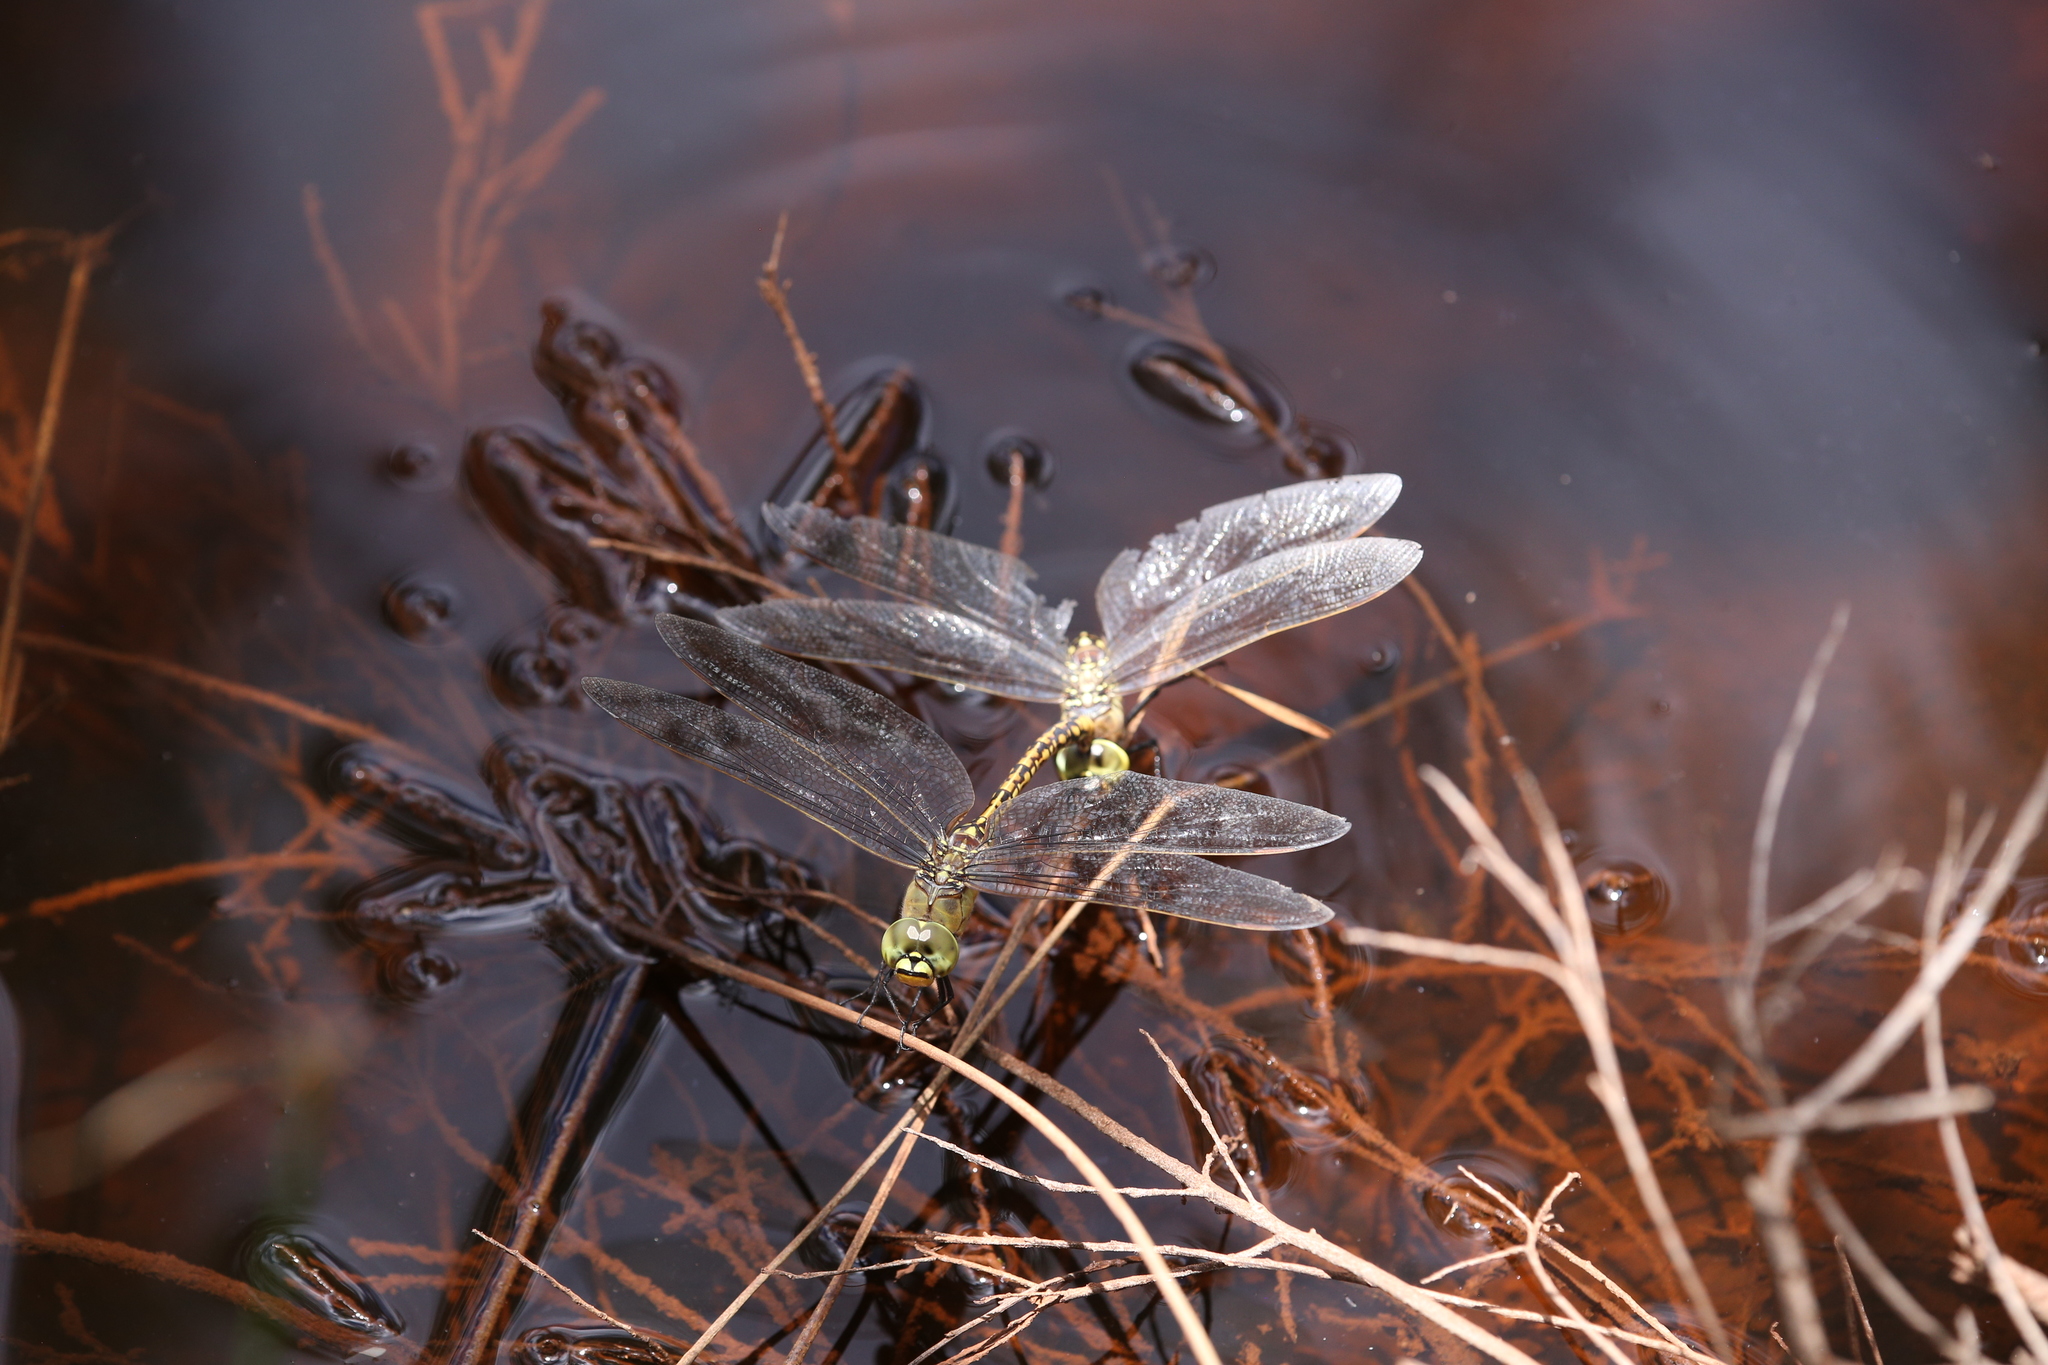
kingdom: Animalia
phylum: Arthropoda
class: Insecta
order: Odonata
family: Aeshnidae
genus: Anax
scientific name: Anax papuensis
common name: Australian emperor
